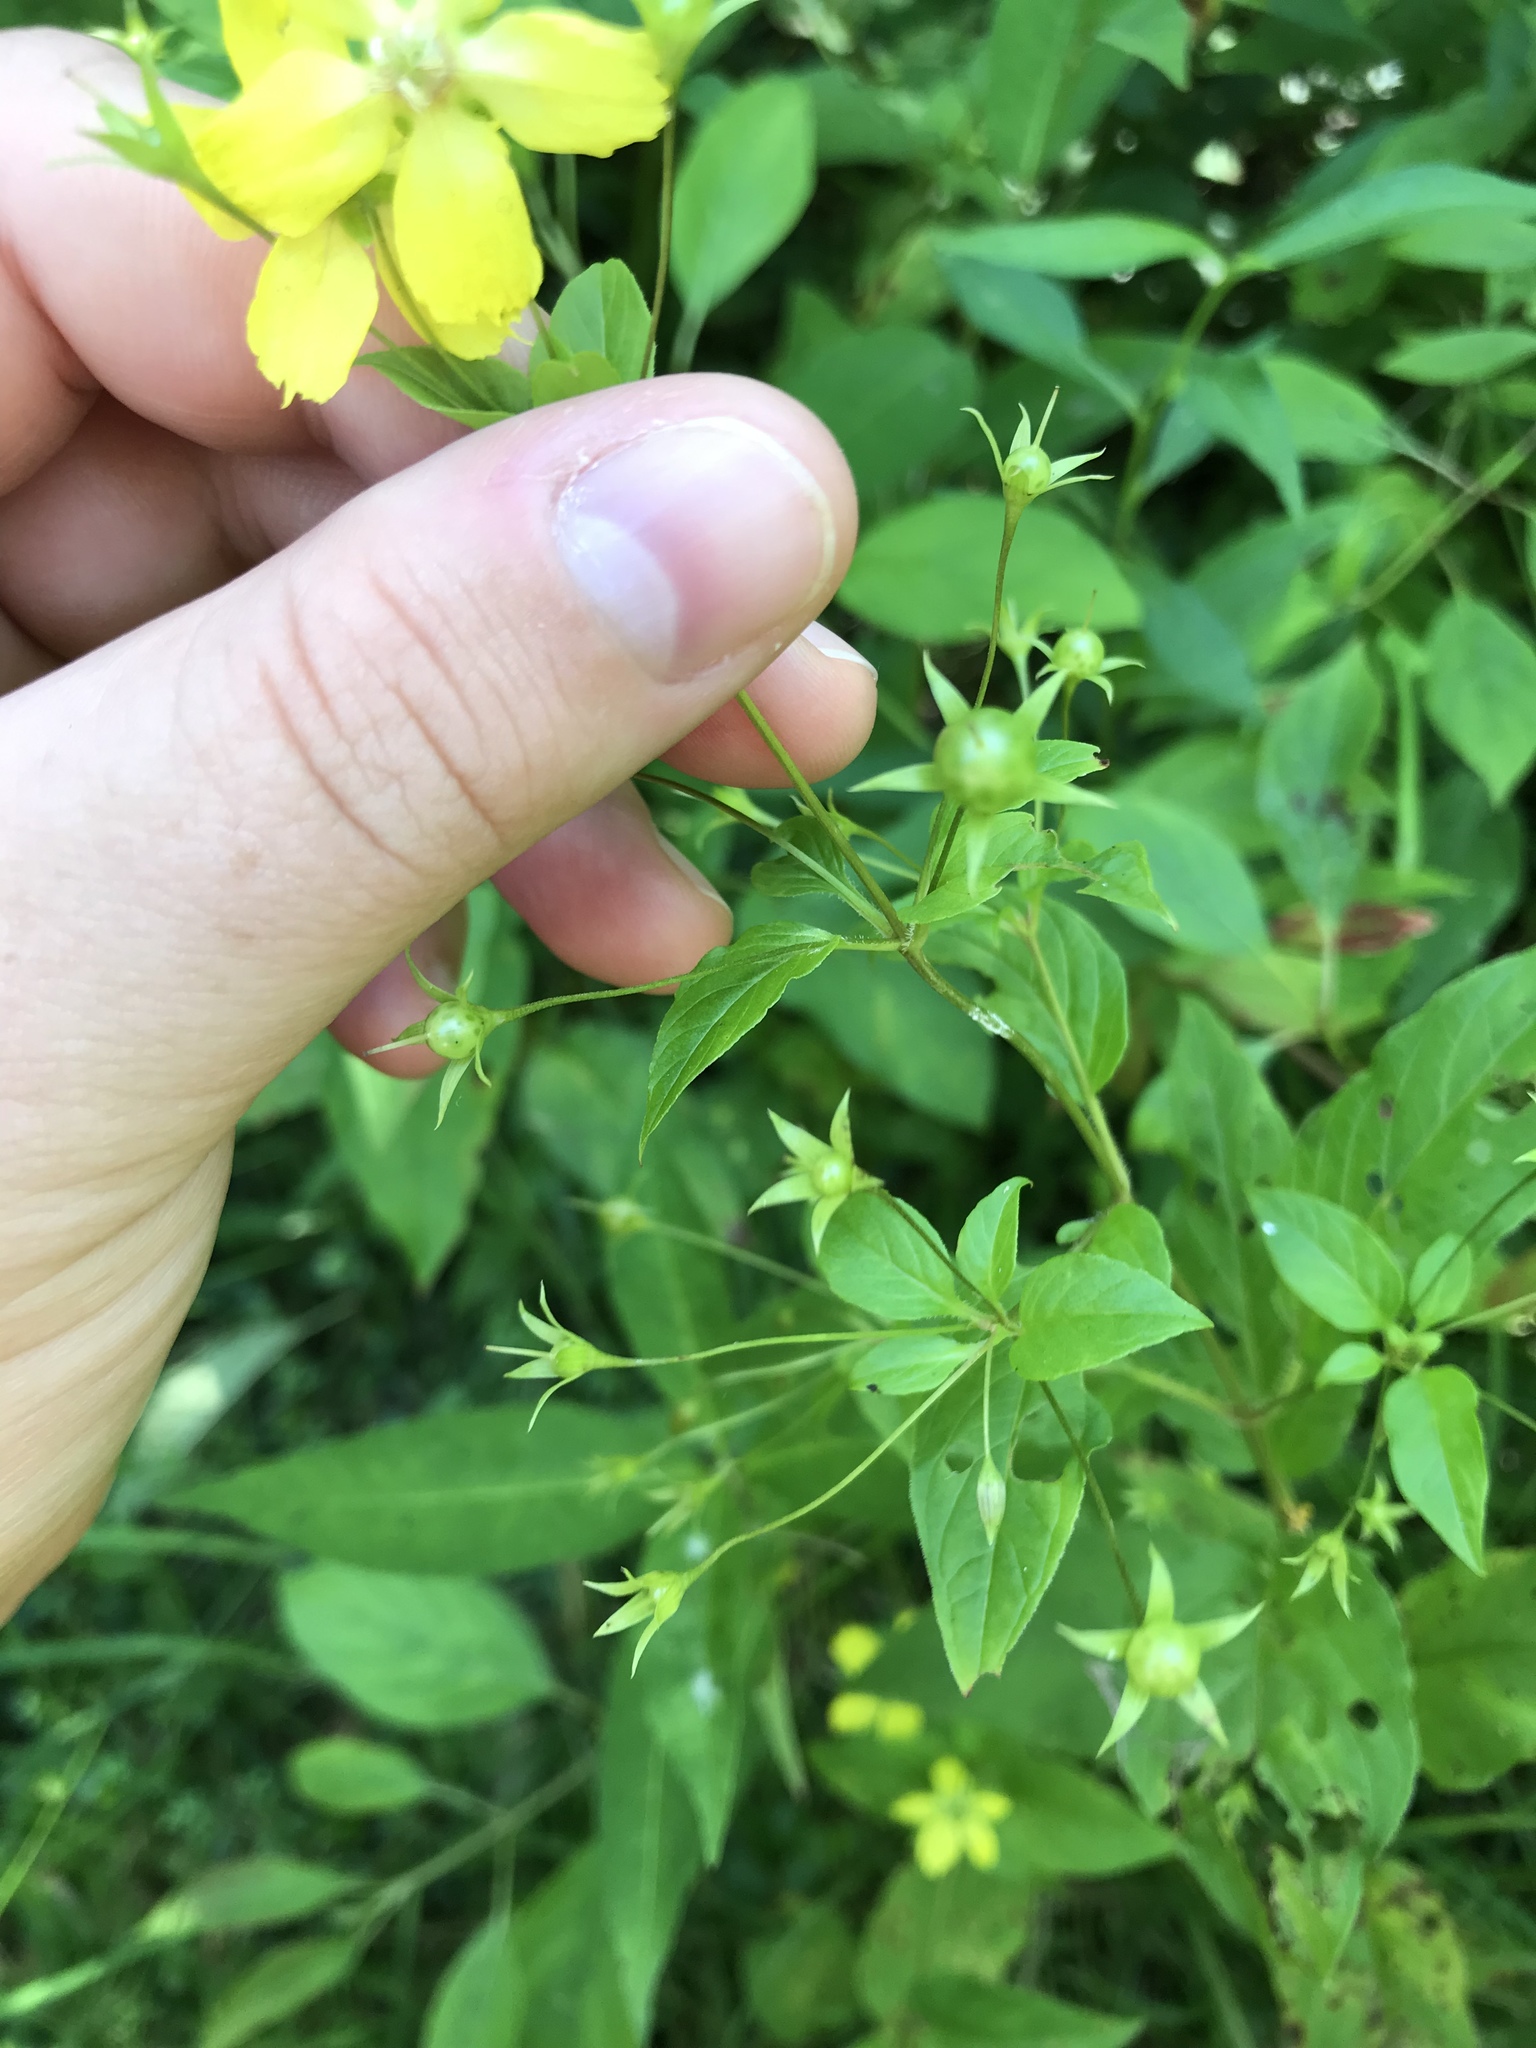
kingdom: Plantae
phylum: Tracheophyta
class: Magnoliopsida
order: Ericales
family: Primulaceae
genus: Lysimachia
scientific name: Lysimachia ciliata
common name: Fringed loosestrife
